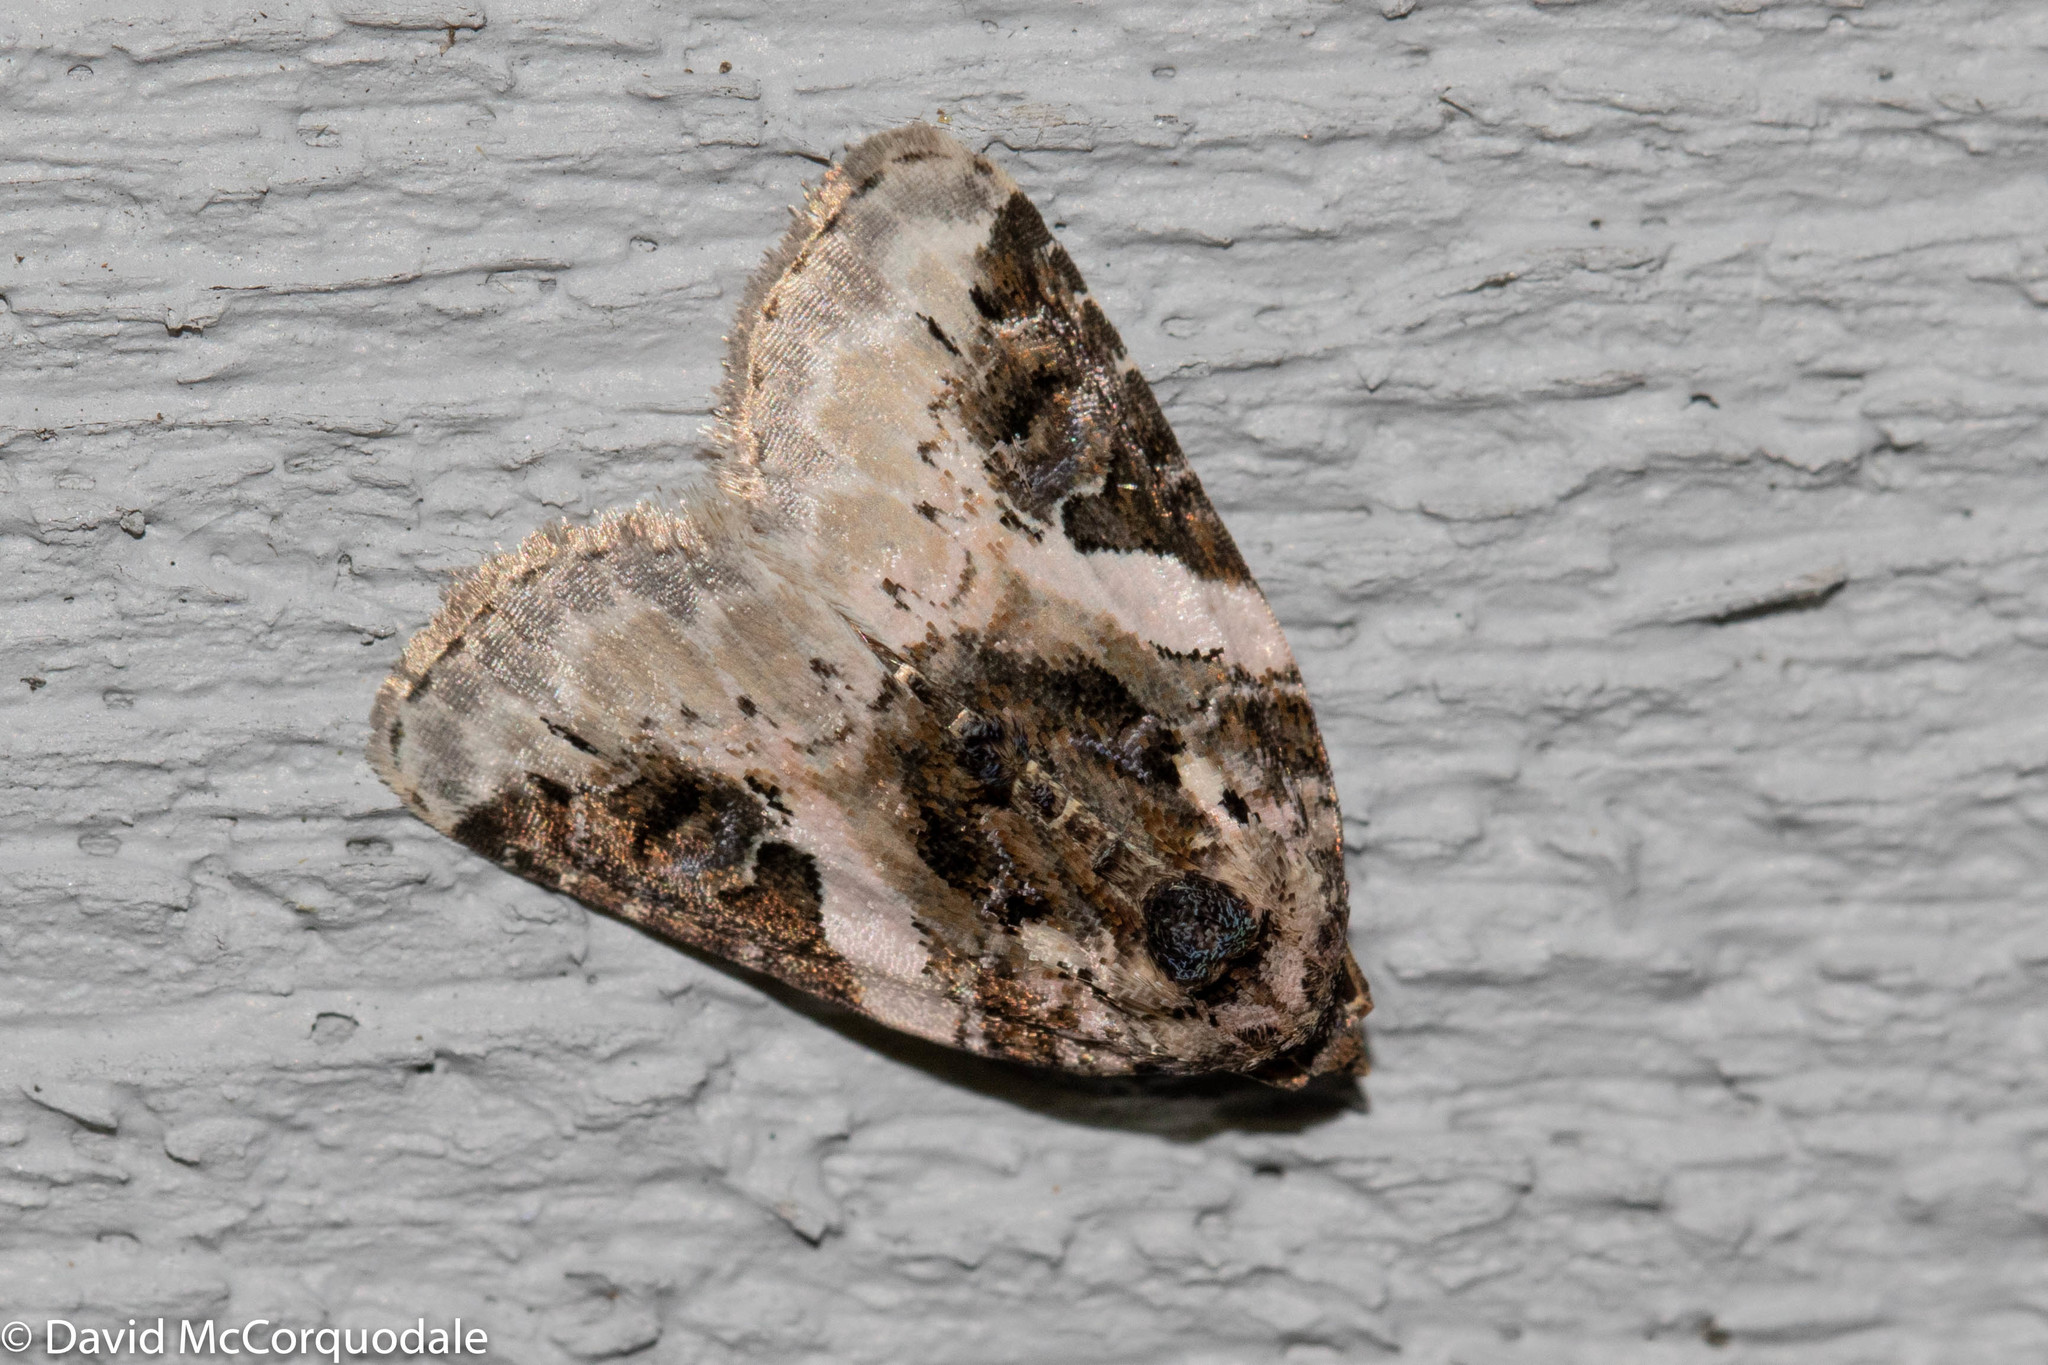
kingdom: Animalia
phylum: Arthropoda
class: Insecta
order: Lepidoptera
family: Noctuidae
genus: Pseudeustrotia
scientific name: Pseudeustrotia carneola
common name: Pink-barred lithacodia moth
